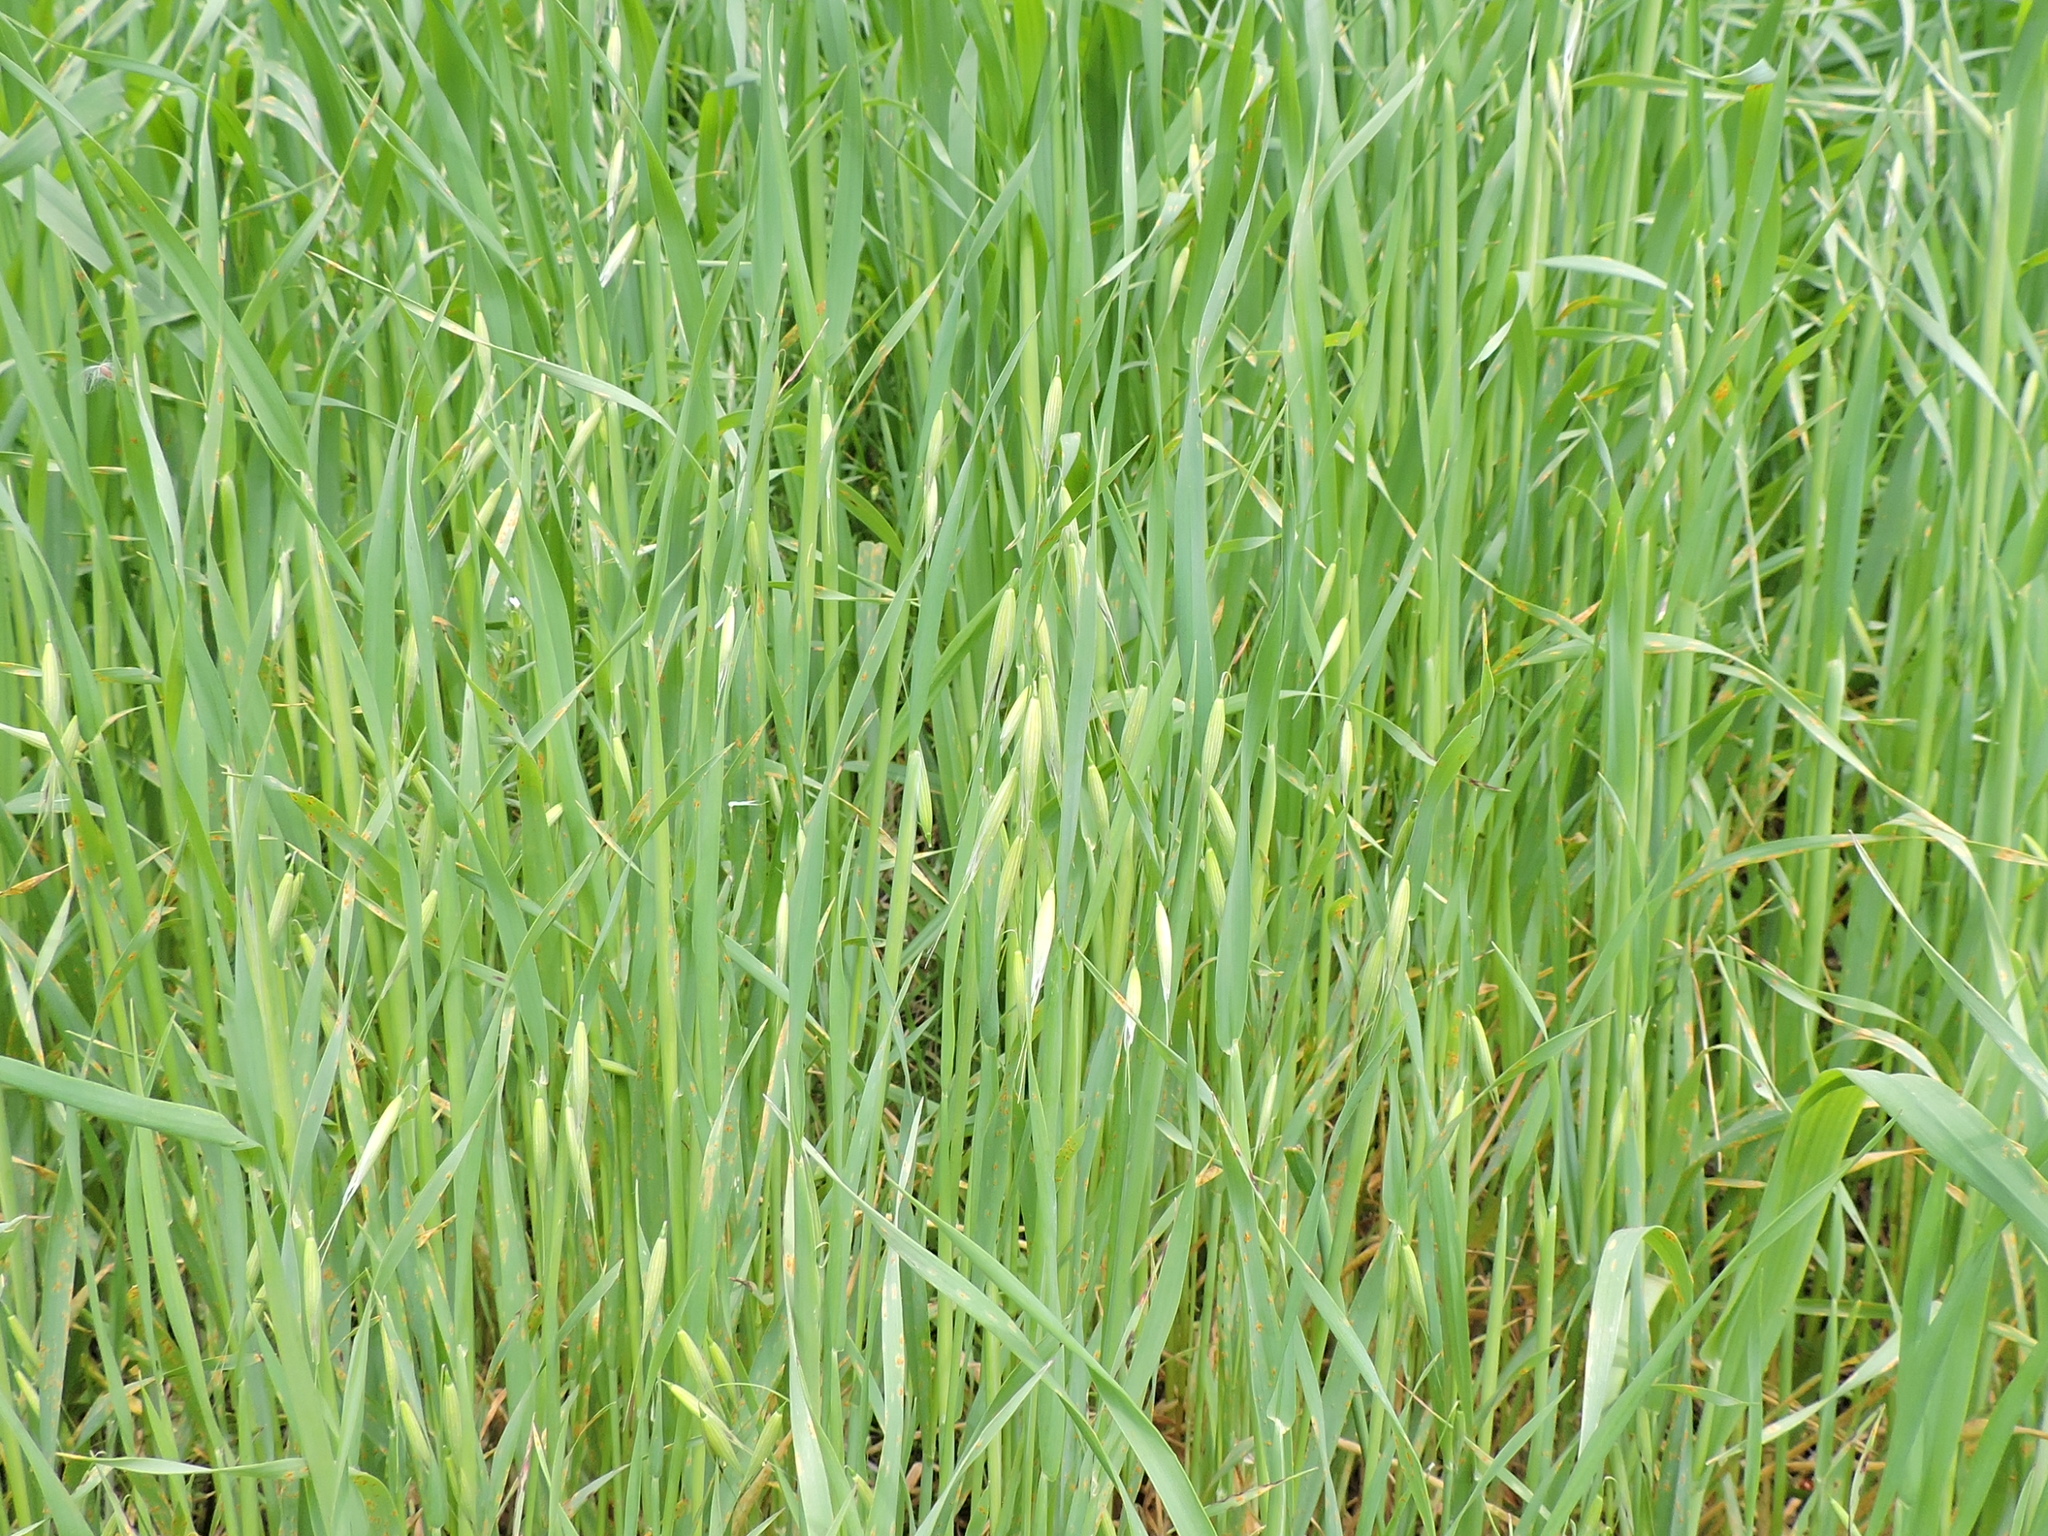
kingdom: Plantae
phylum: Tracheophyta
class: Liliopsida
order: Poales
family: Poaceae
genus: Avena
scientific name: Avena sativa
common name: Oat
